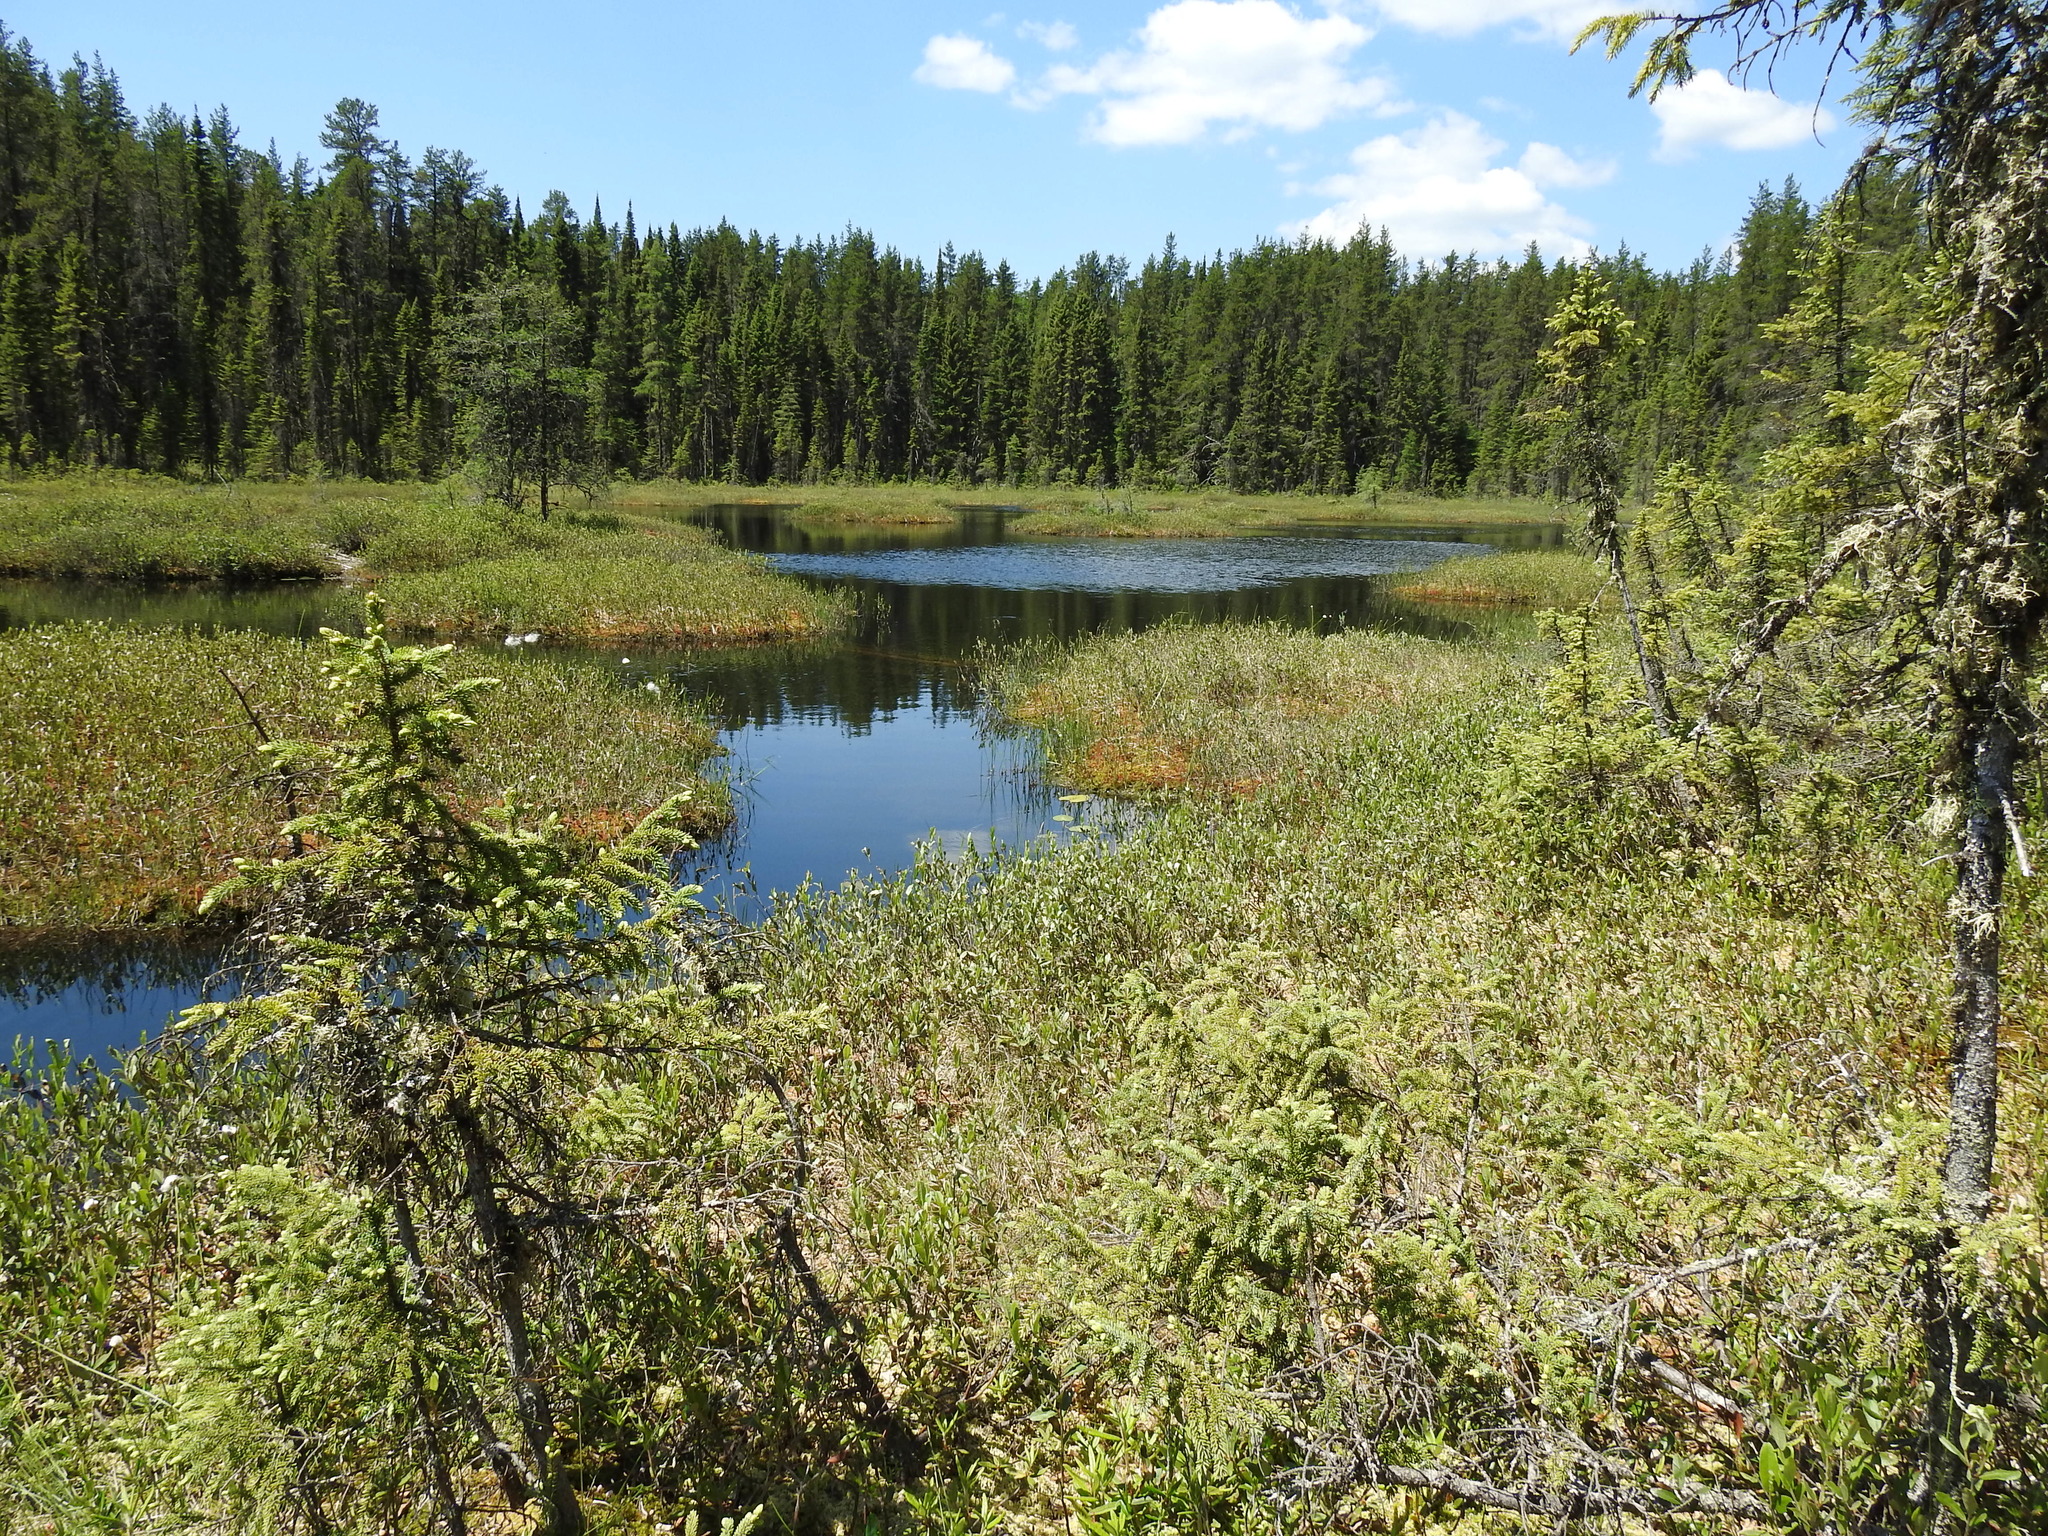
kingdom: Plantae
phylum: Tracheophyta
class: Pinopsida
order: Pinales
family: Pinaceae
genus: Picea
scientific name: Picea mariana
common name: Black spruce
